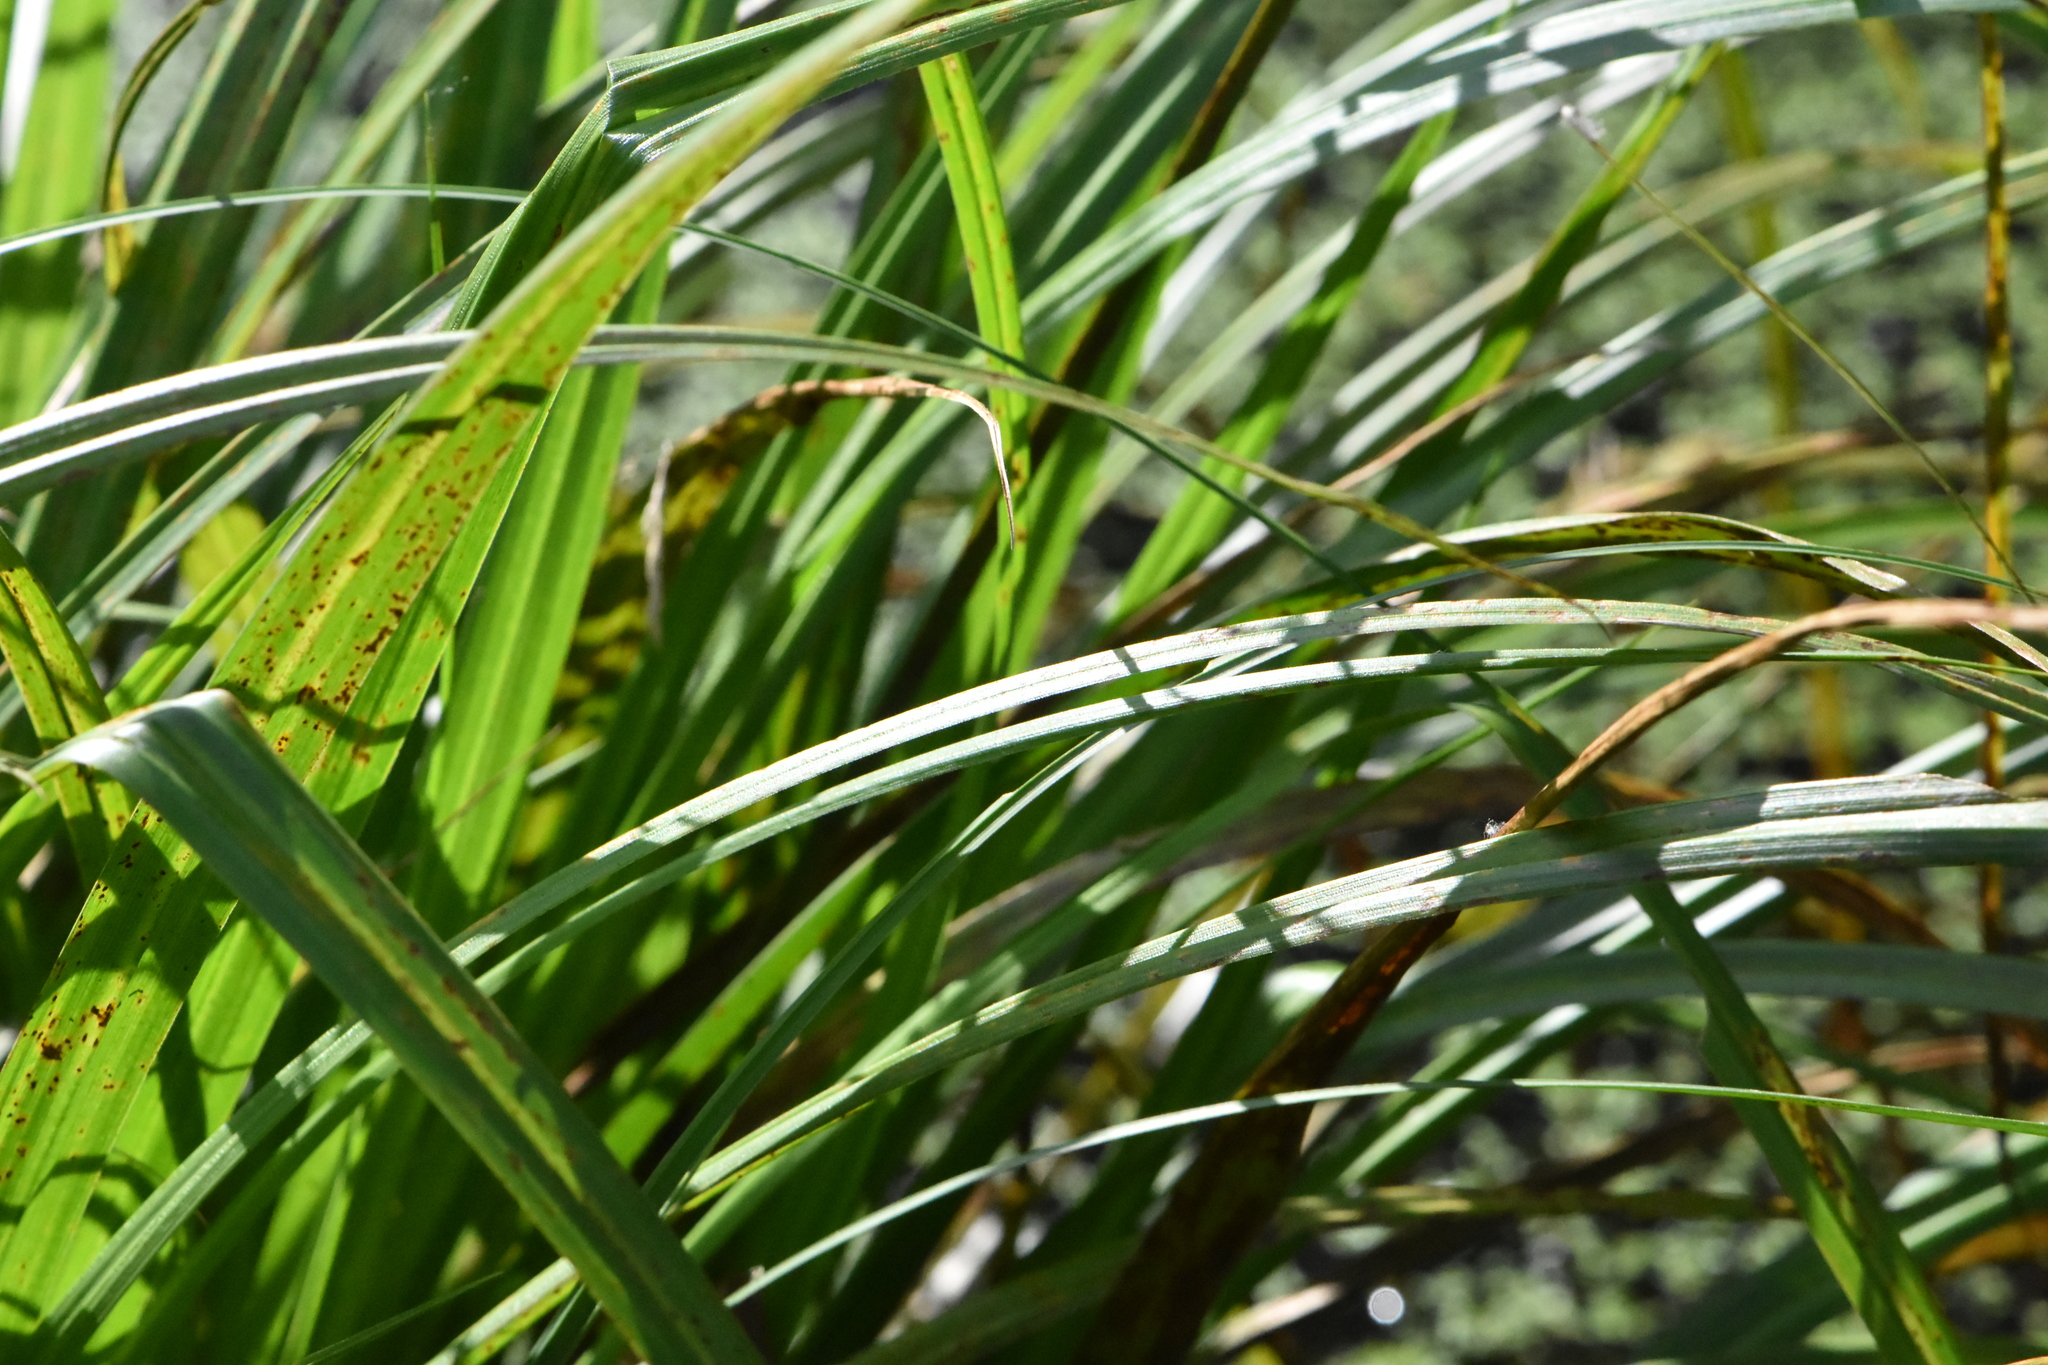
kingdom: Plantae
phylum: Tracheophyta
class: Liliopsida
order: Poales
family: Cyperaceae
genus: Carex
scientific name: Carex pseudocyperus
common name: Cyperus sedge
